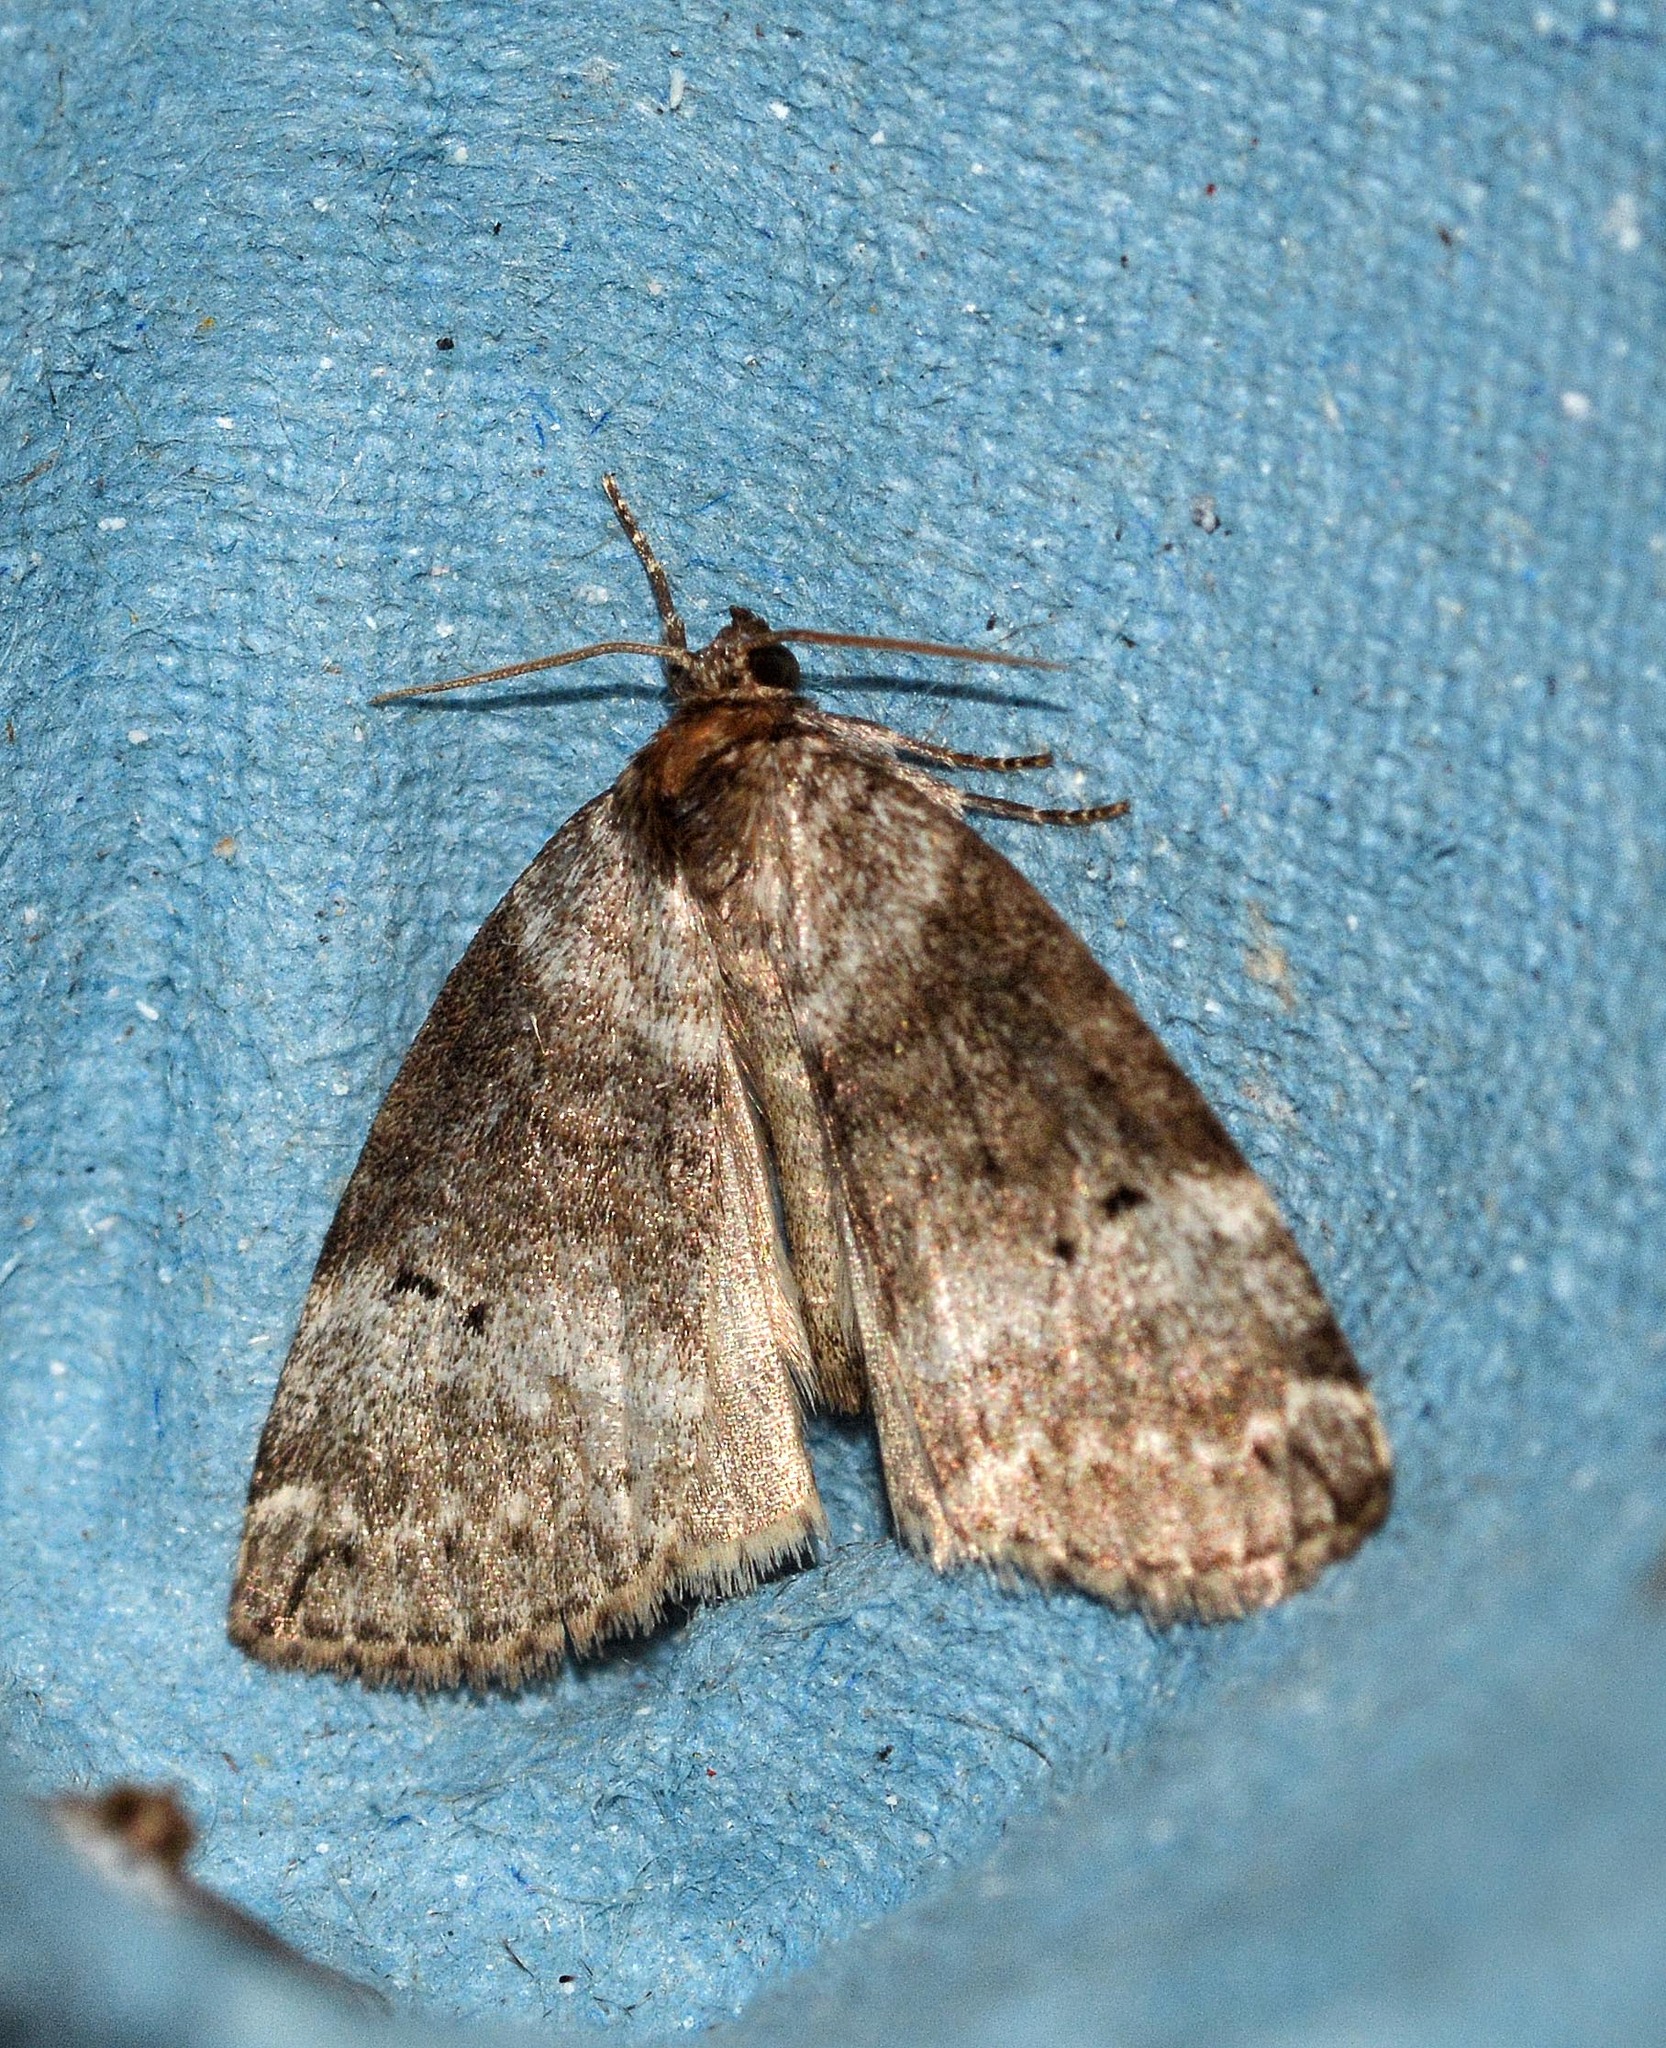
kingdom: Animalia
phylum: Arthropoda
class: Insecta
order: Lepidoptera
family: Drepanidae
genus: Ochropacha
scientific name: Ochropacha duplaris
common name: Common lutestring
